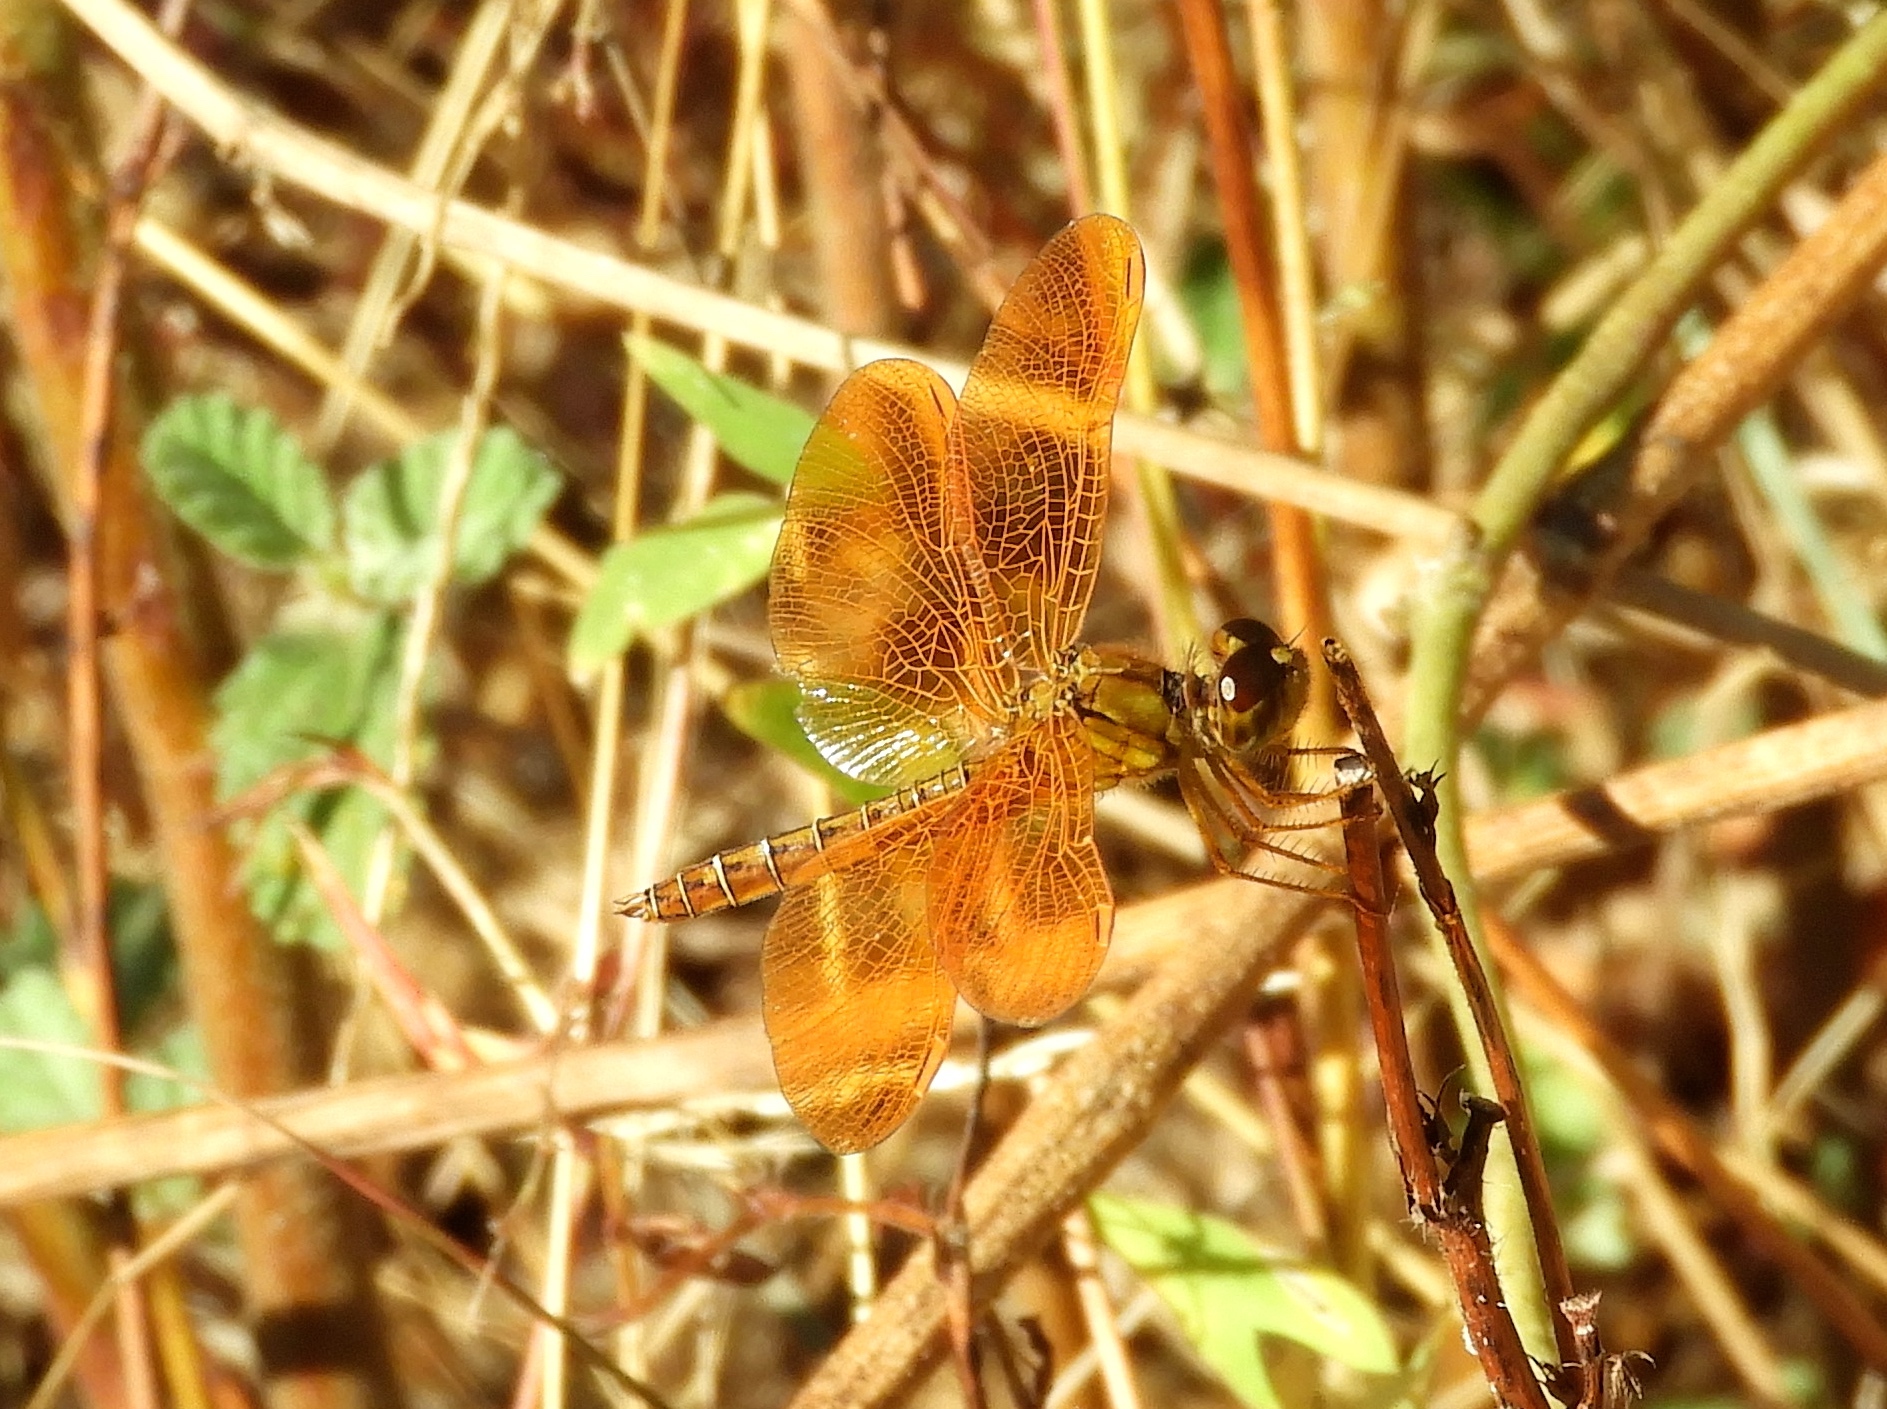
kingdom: Animalia
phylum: Arthropoda
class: Insecta
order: Odonata
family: Libellulidae
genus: Perithemis
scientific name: Perithemis intensa
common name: Mexican amberwing
